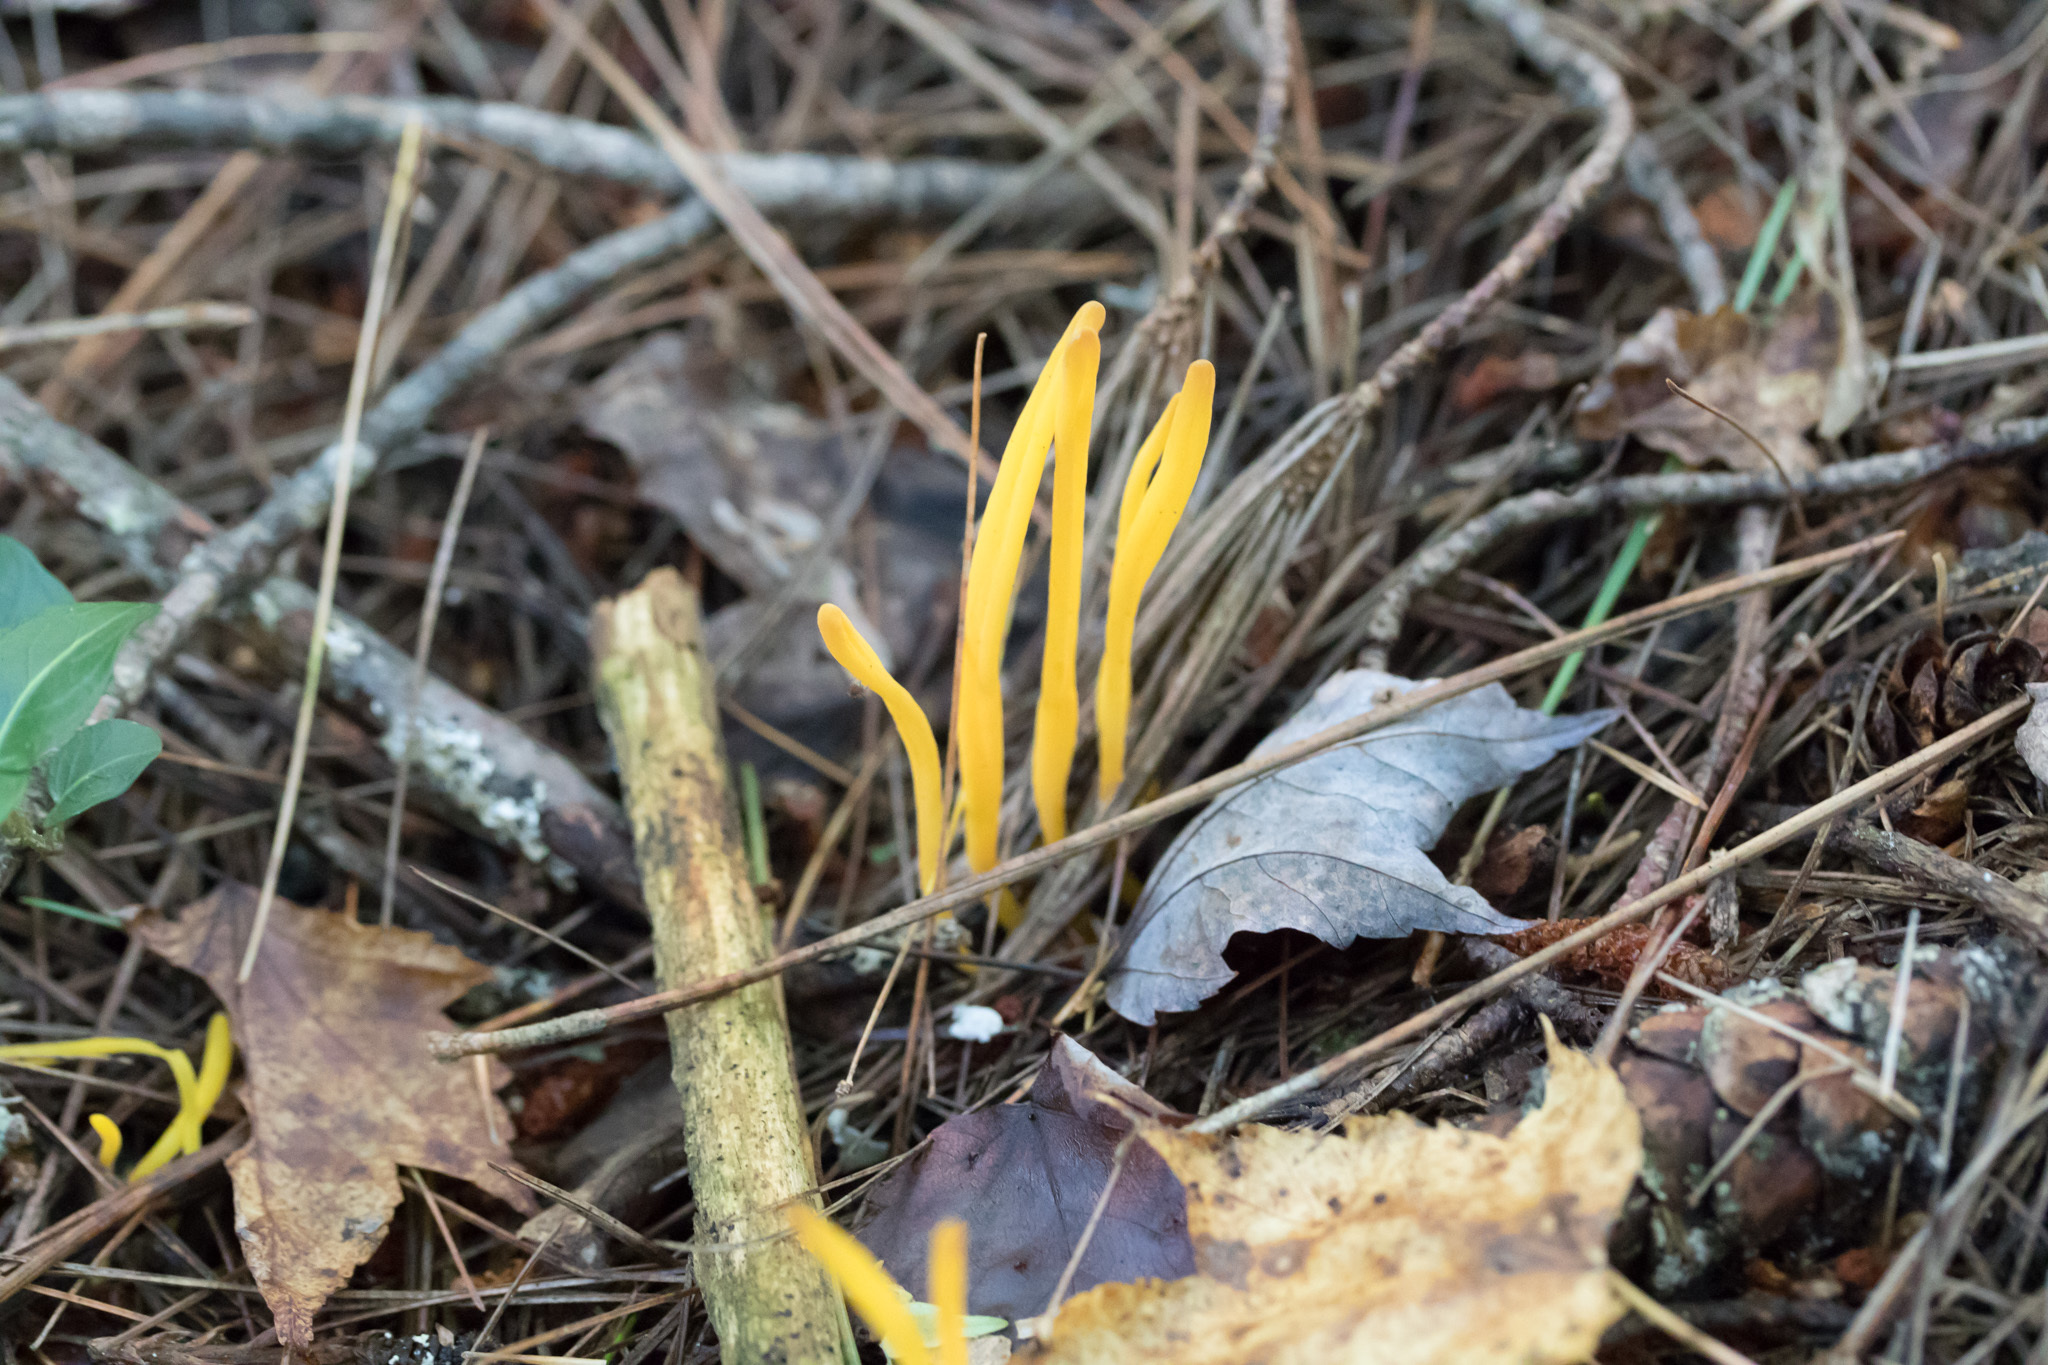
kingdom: Fungi
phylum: Basidiomycota
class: Agaricomycetes
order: Agaricales
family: Clavariaceae
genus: Clavulinopsis
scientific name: Clavulinopsis laeticolor
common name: Handsome club
